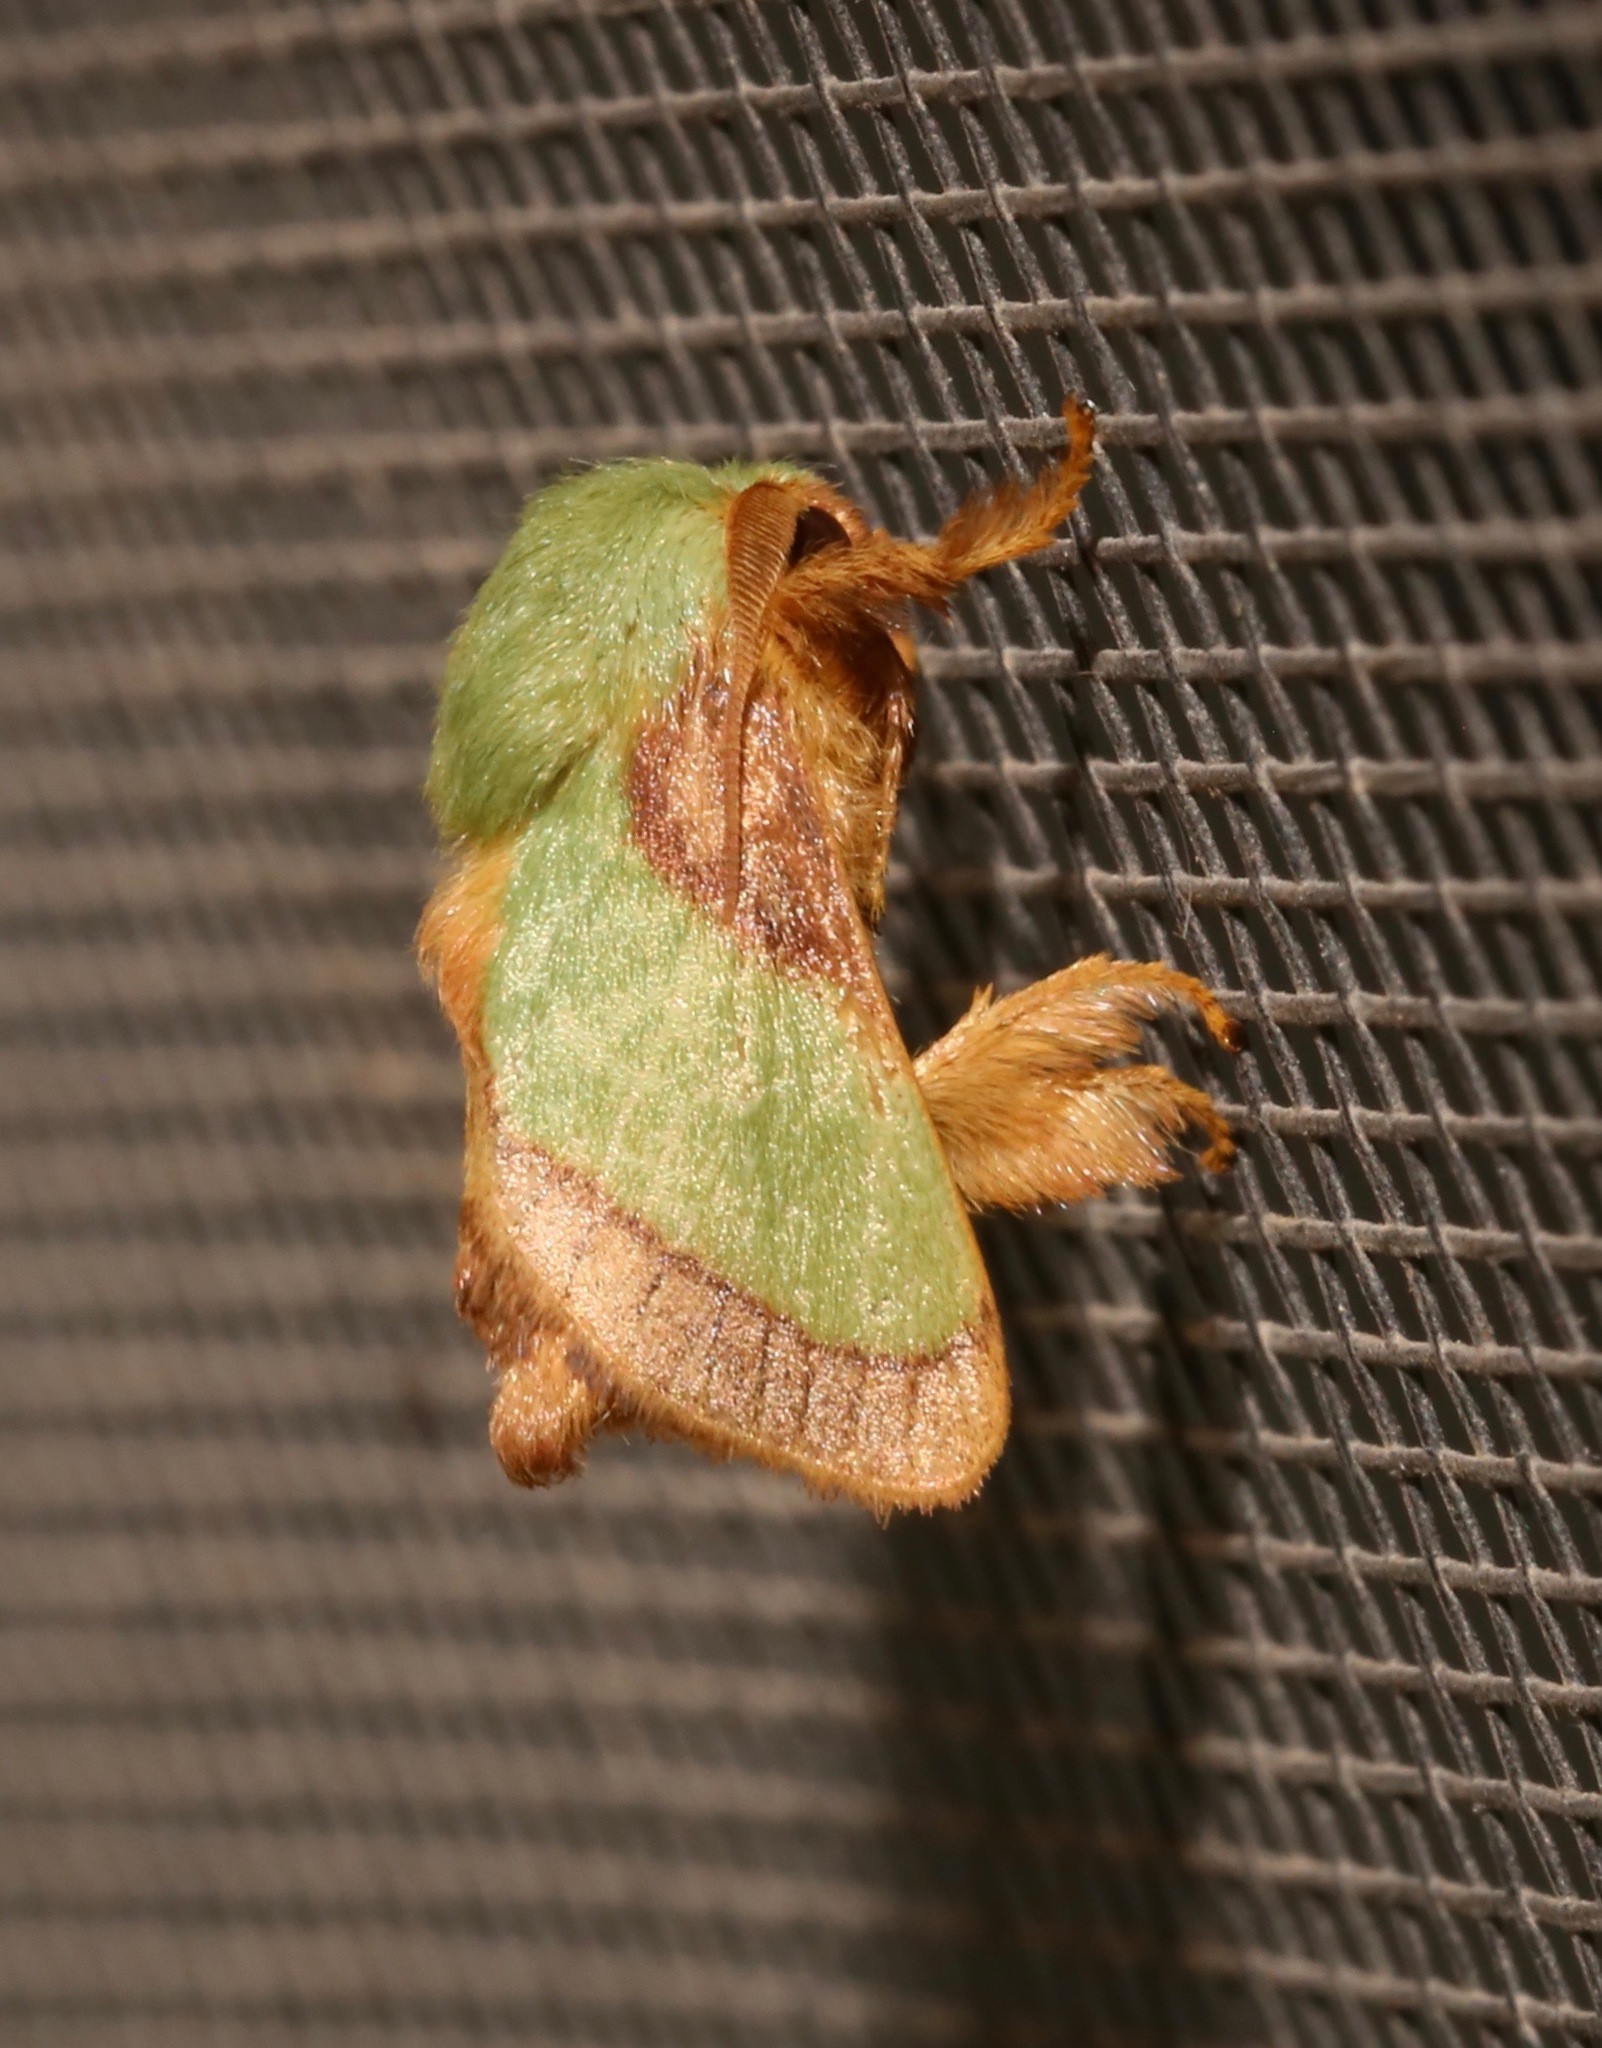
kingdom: Animalia
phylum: Arthropoda
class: Insecta
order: Lepidoptera
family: Limacodidae
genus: Parasa
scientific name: Parasa chloris
